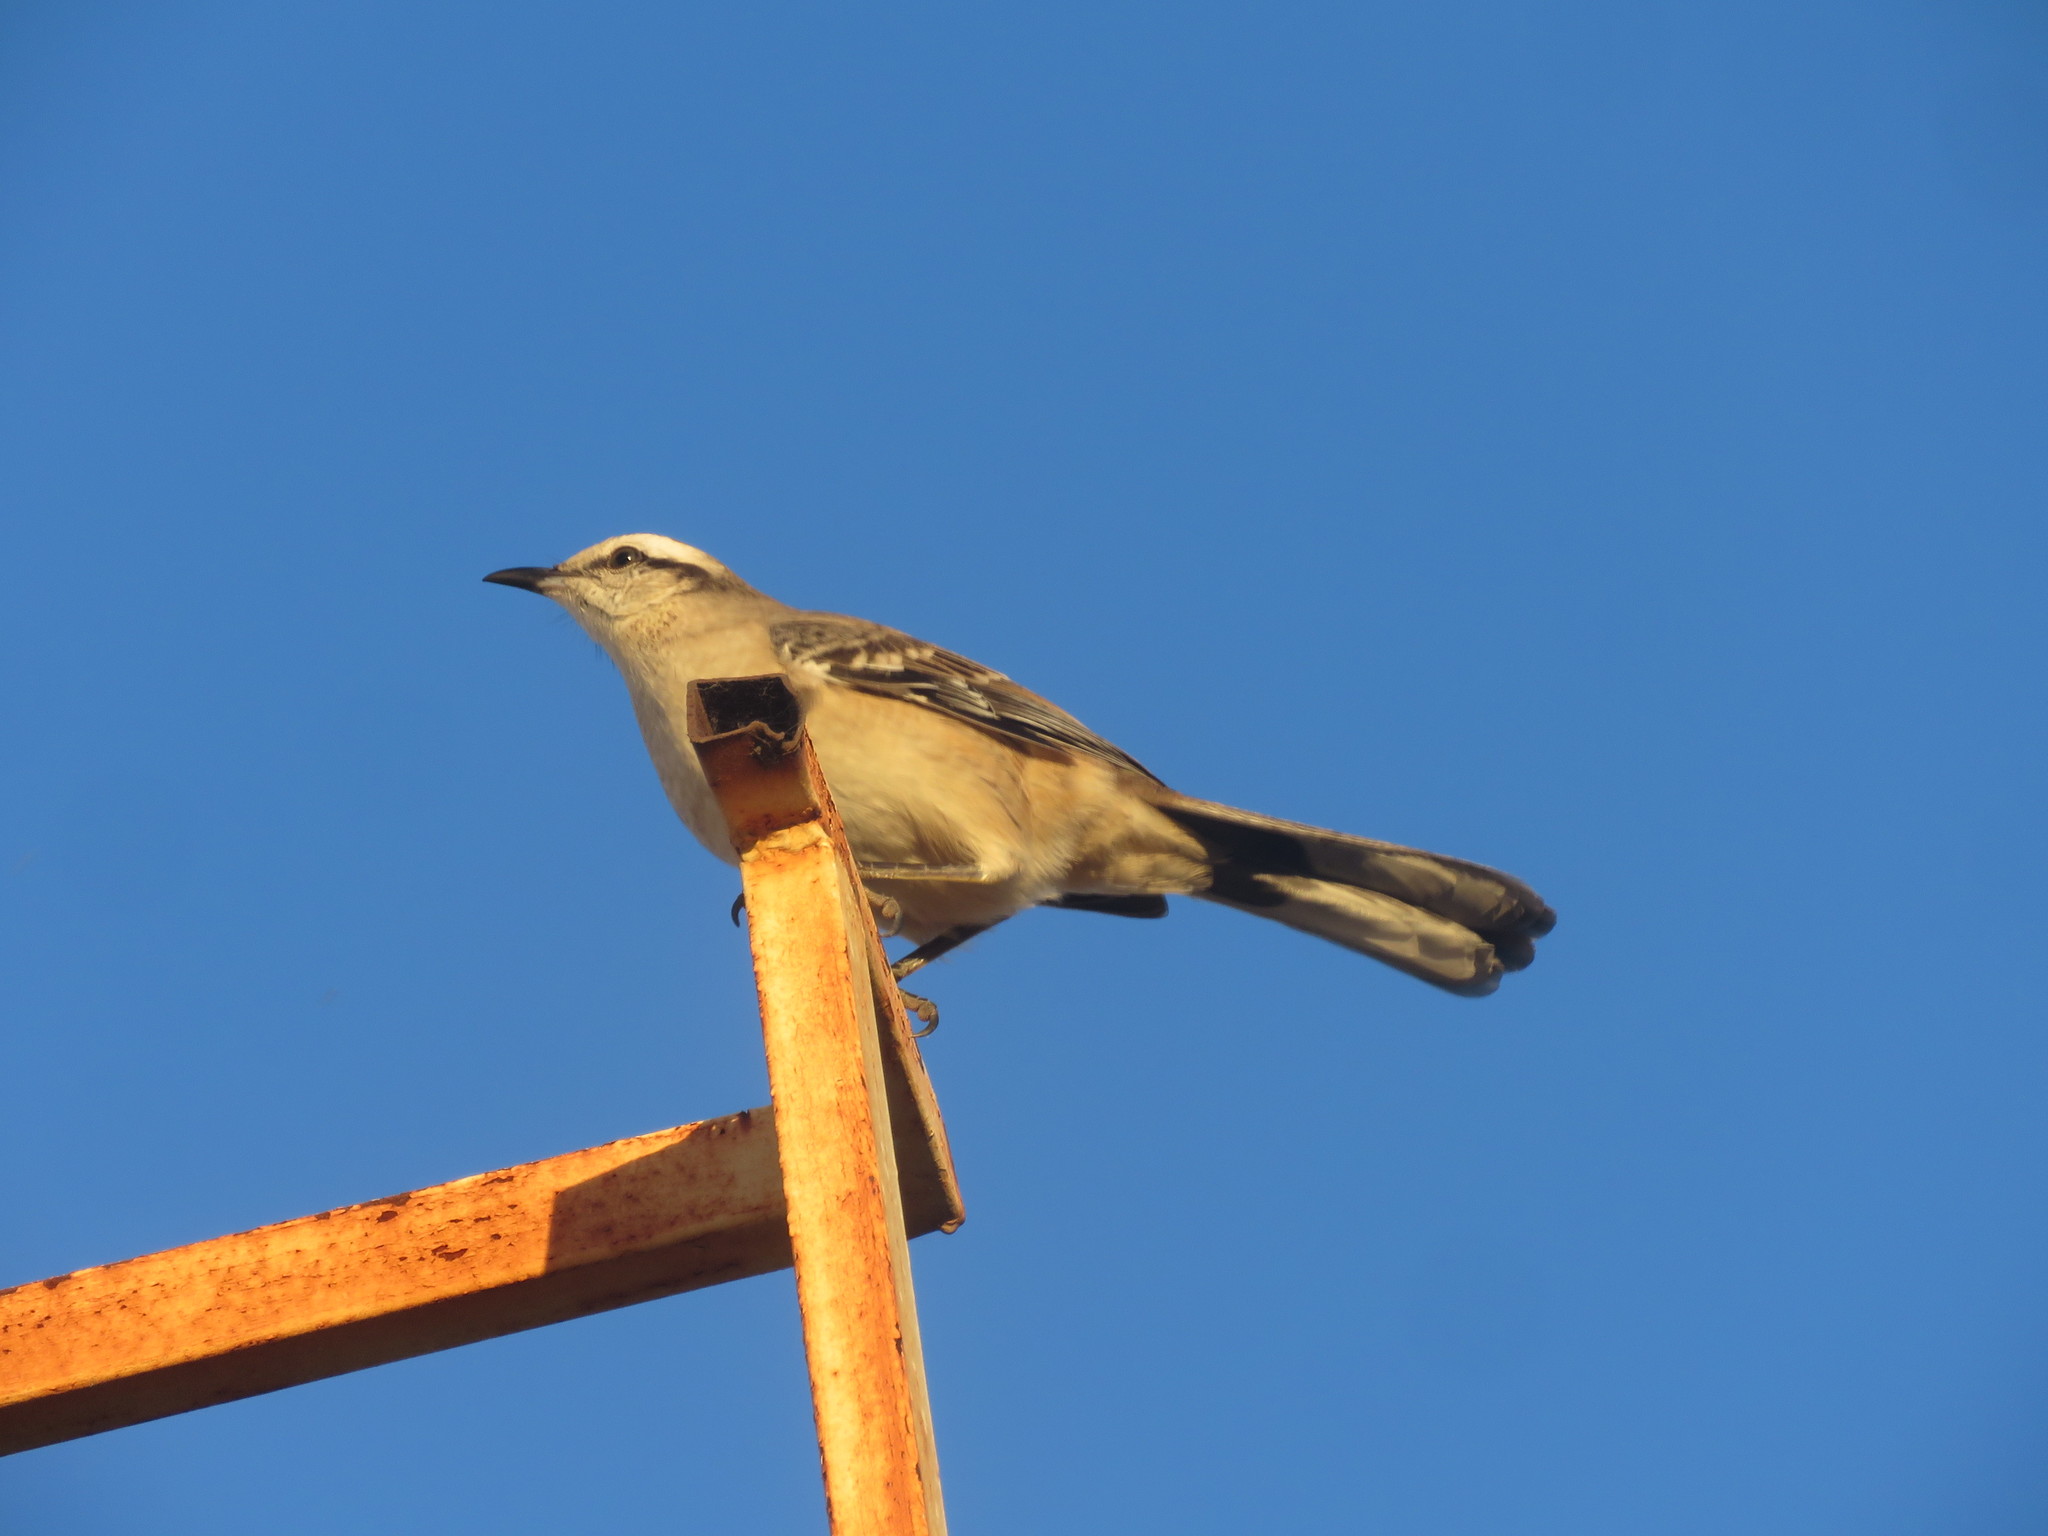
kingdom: Animalia
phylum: Chordata
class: Aves
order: Passeriformes
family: Mimidae
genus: Mimus
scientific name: Mimus saturninus
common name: Chalk-browed mockingbird
